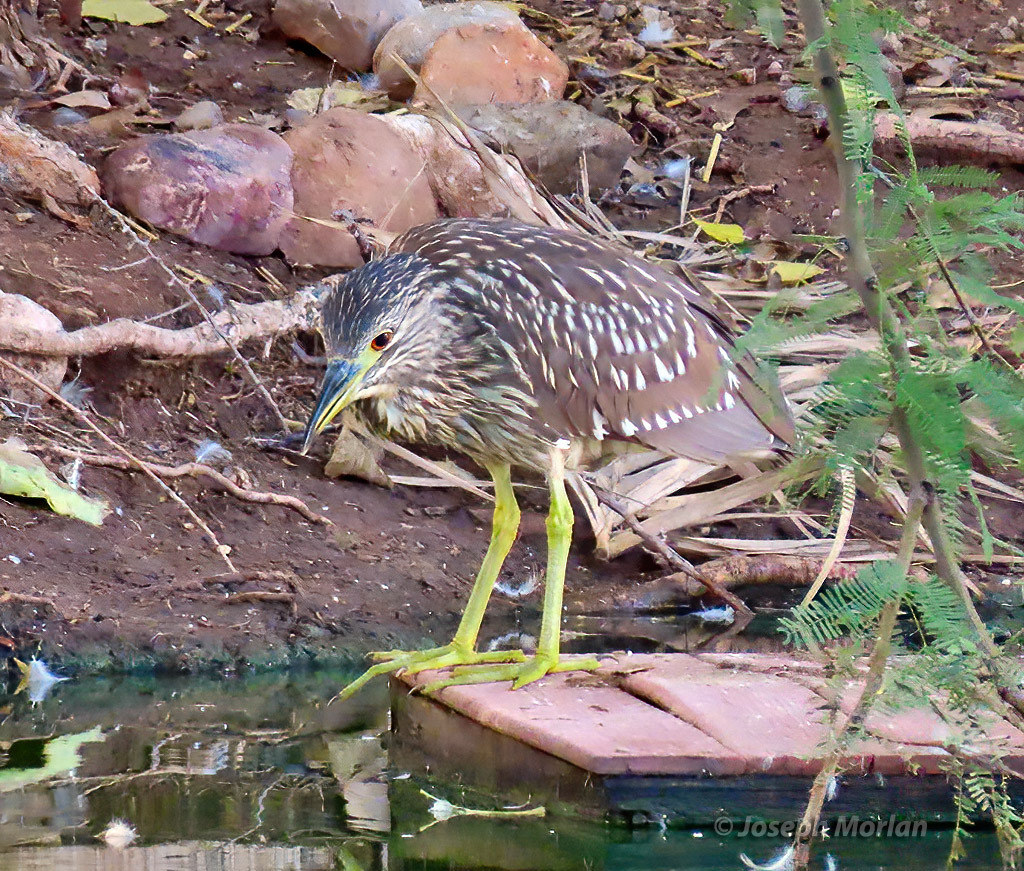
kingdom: Animalia
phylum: Chordata
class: Aves
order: Pelecaniformes
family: Ardeidae
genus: Nycticorax
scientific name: Nycticorax nycticorax
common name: Black-crowned night heron
